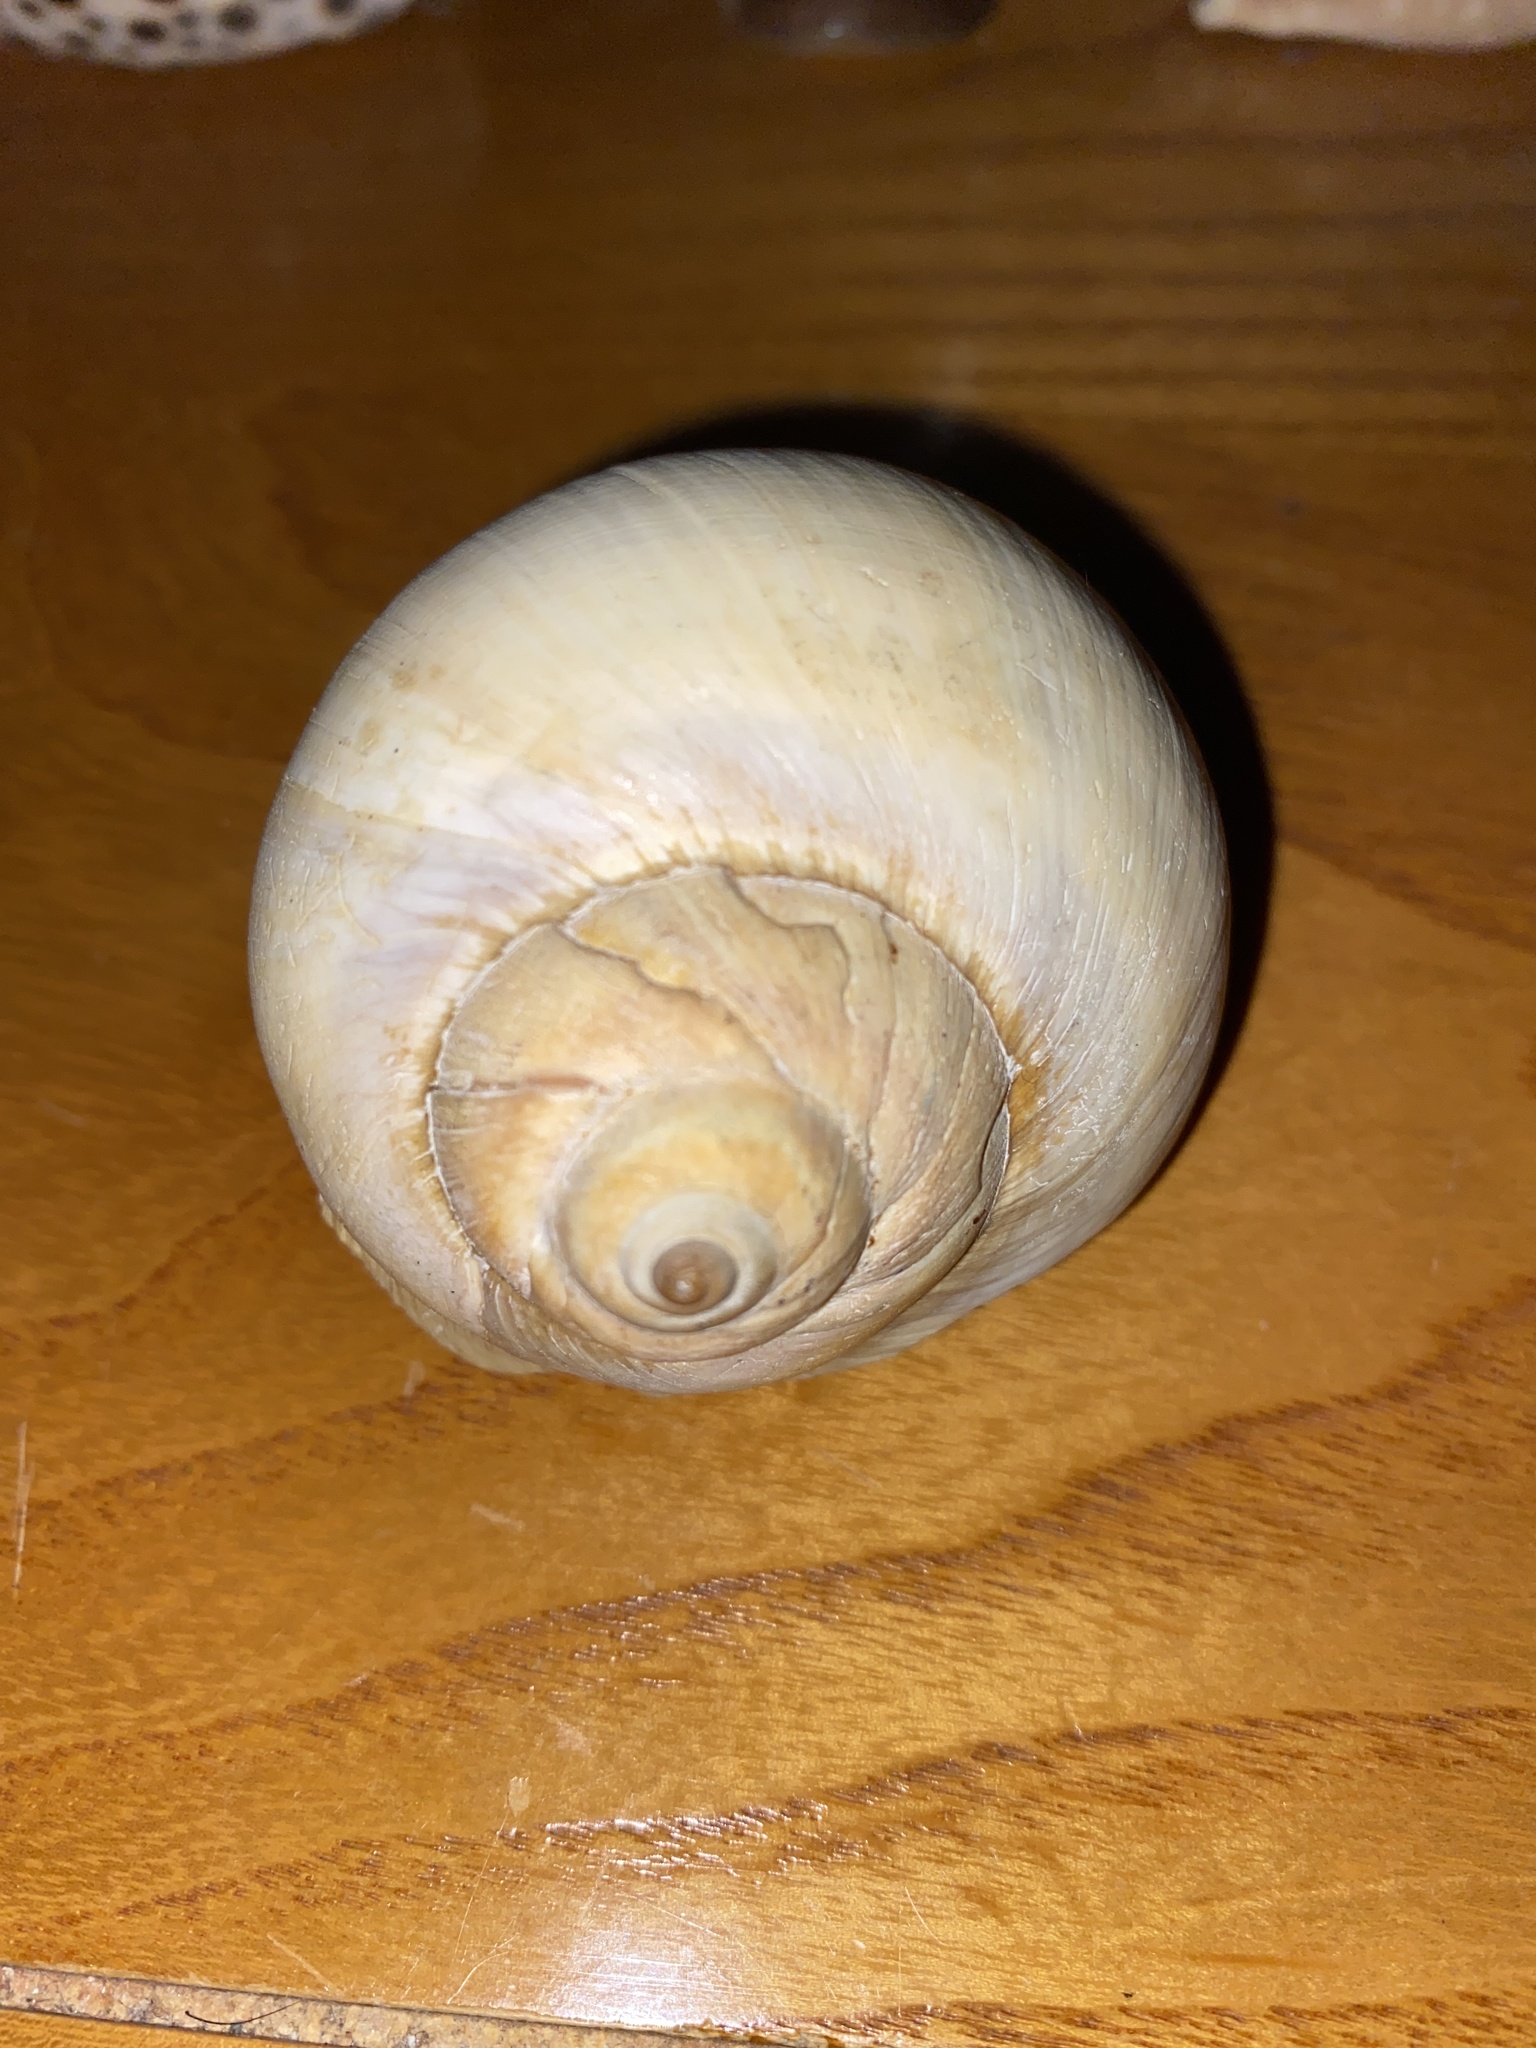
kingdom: Animalia
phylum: Mollusca
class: Gastropoda
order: Littorinimorpha
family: Naticidae
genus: Euspira
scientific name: Euspira heros
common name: Common northern moonsnail
